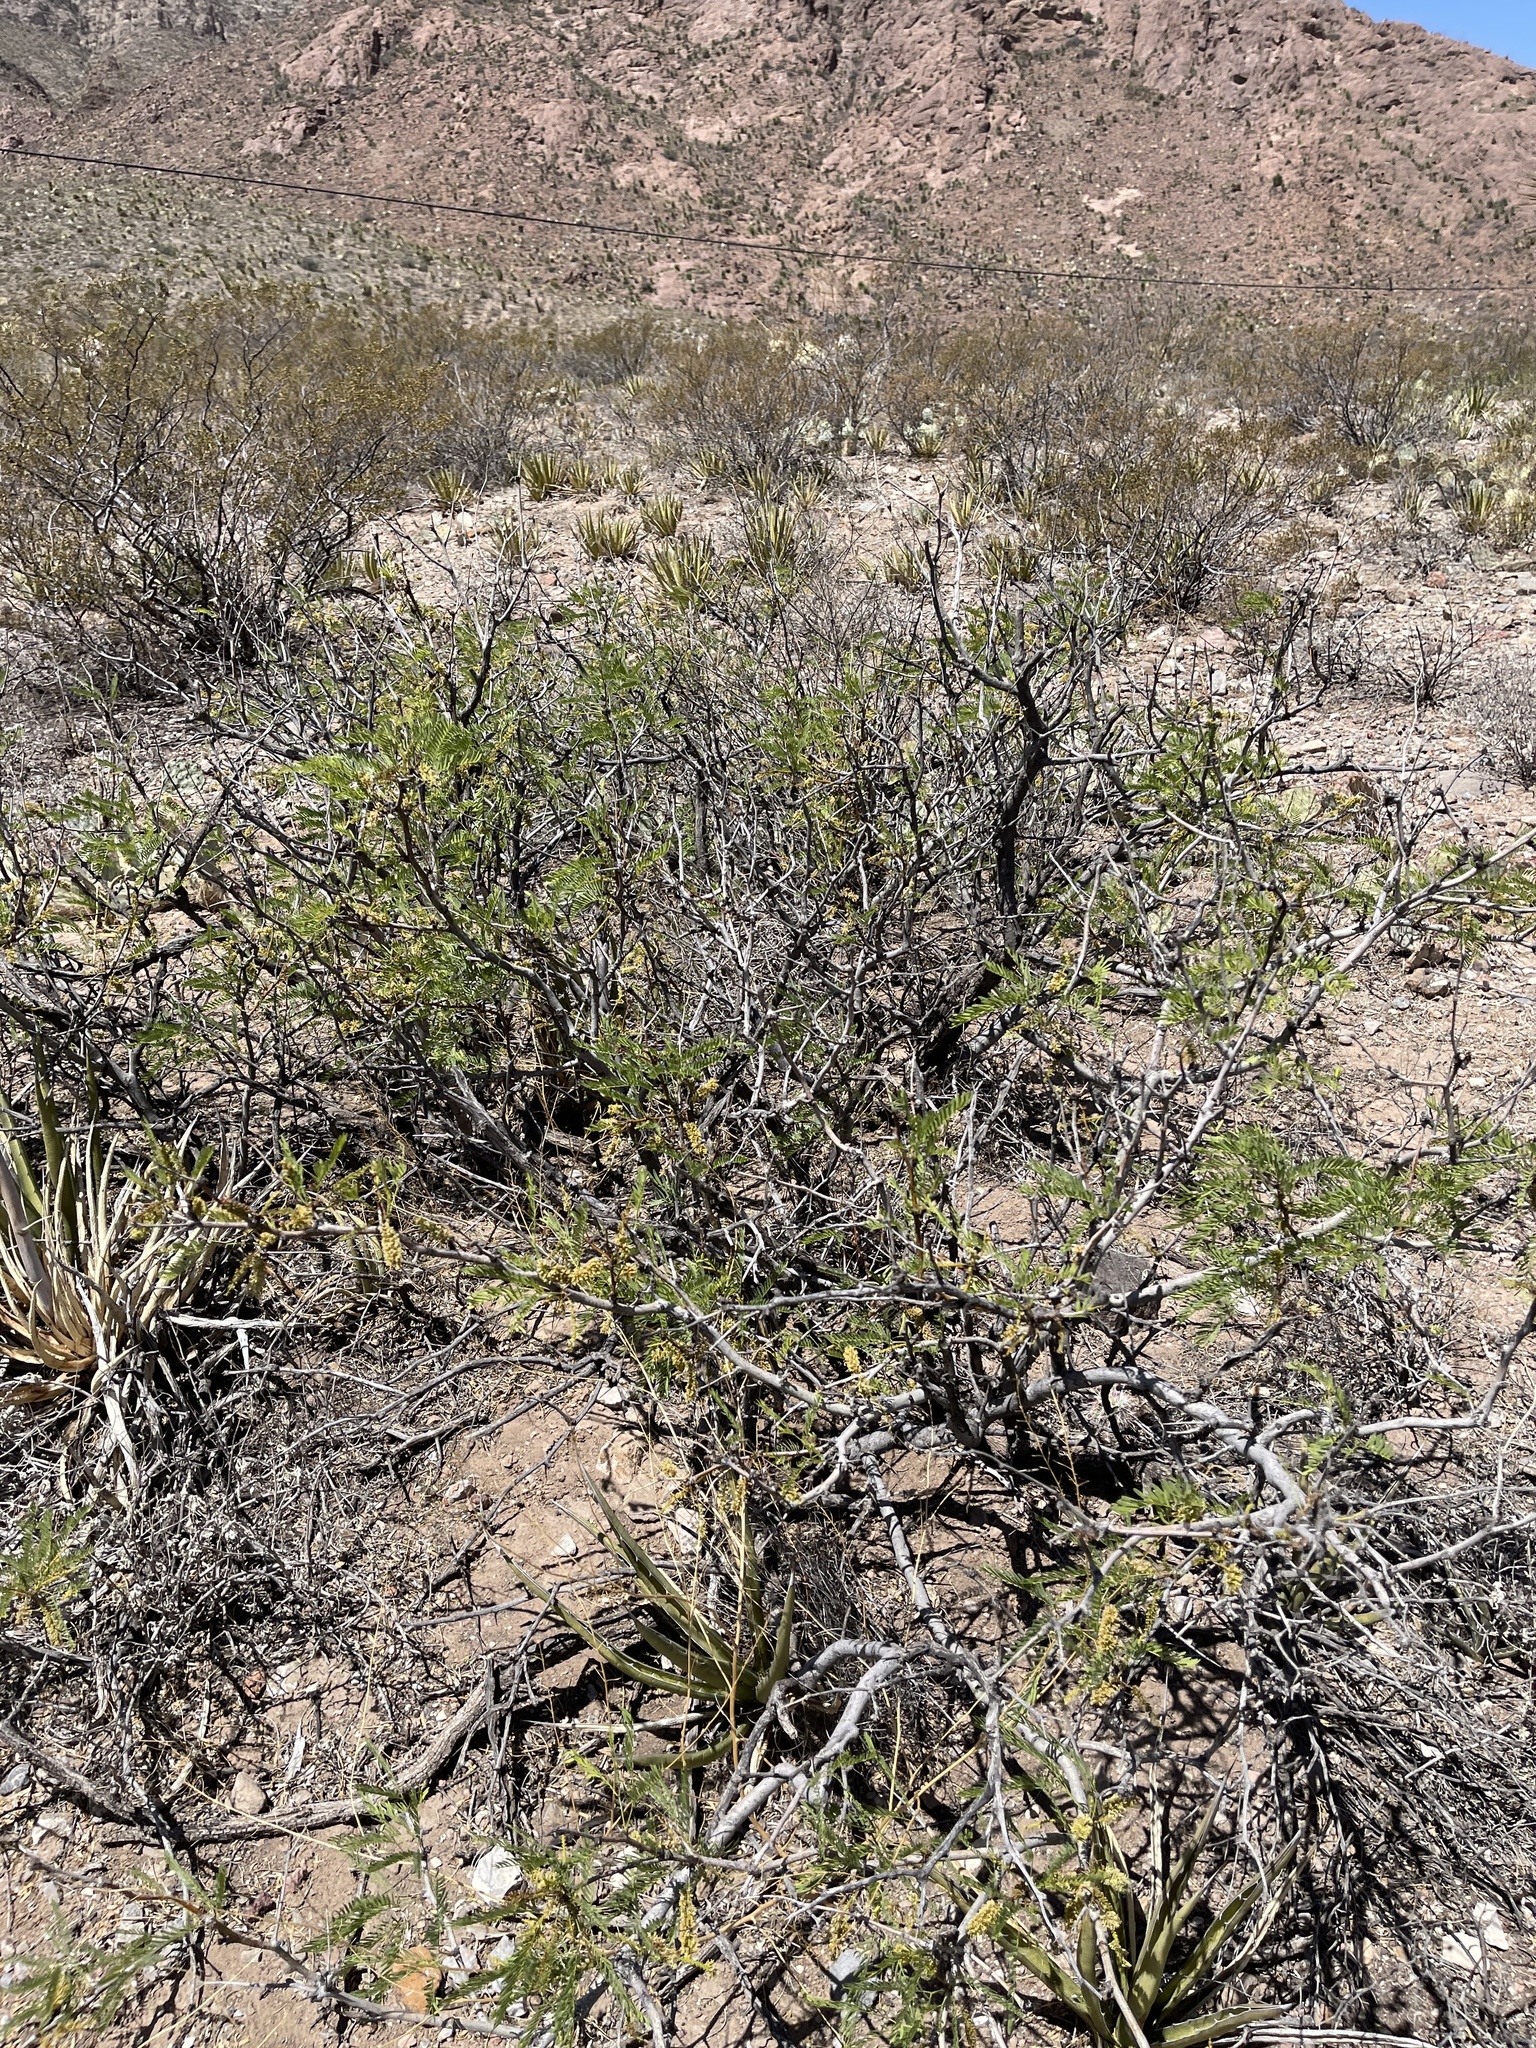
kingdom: Plantae
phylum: Tracheophyta
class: Magnoliopsida
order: Fabales
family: Fabaceae
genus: Prosopis
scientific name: Prosopis glandulosa
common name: Honey mesquite
